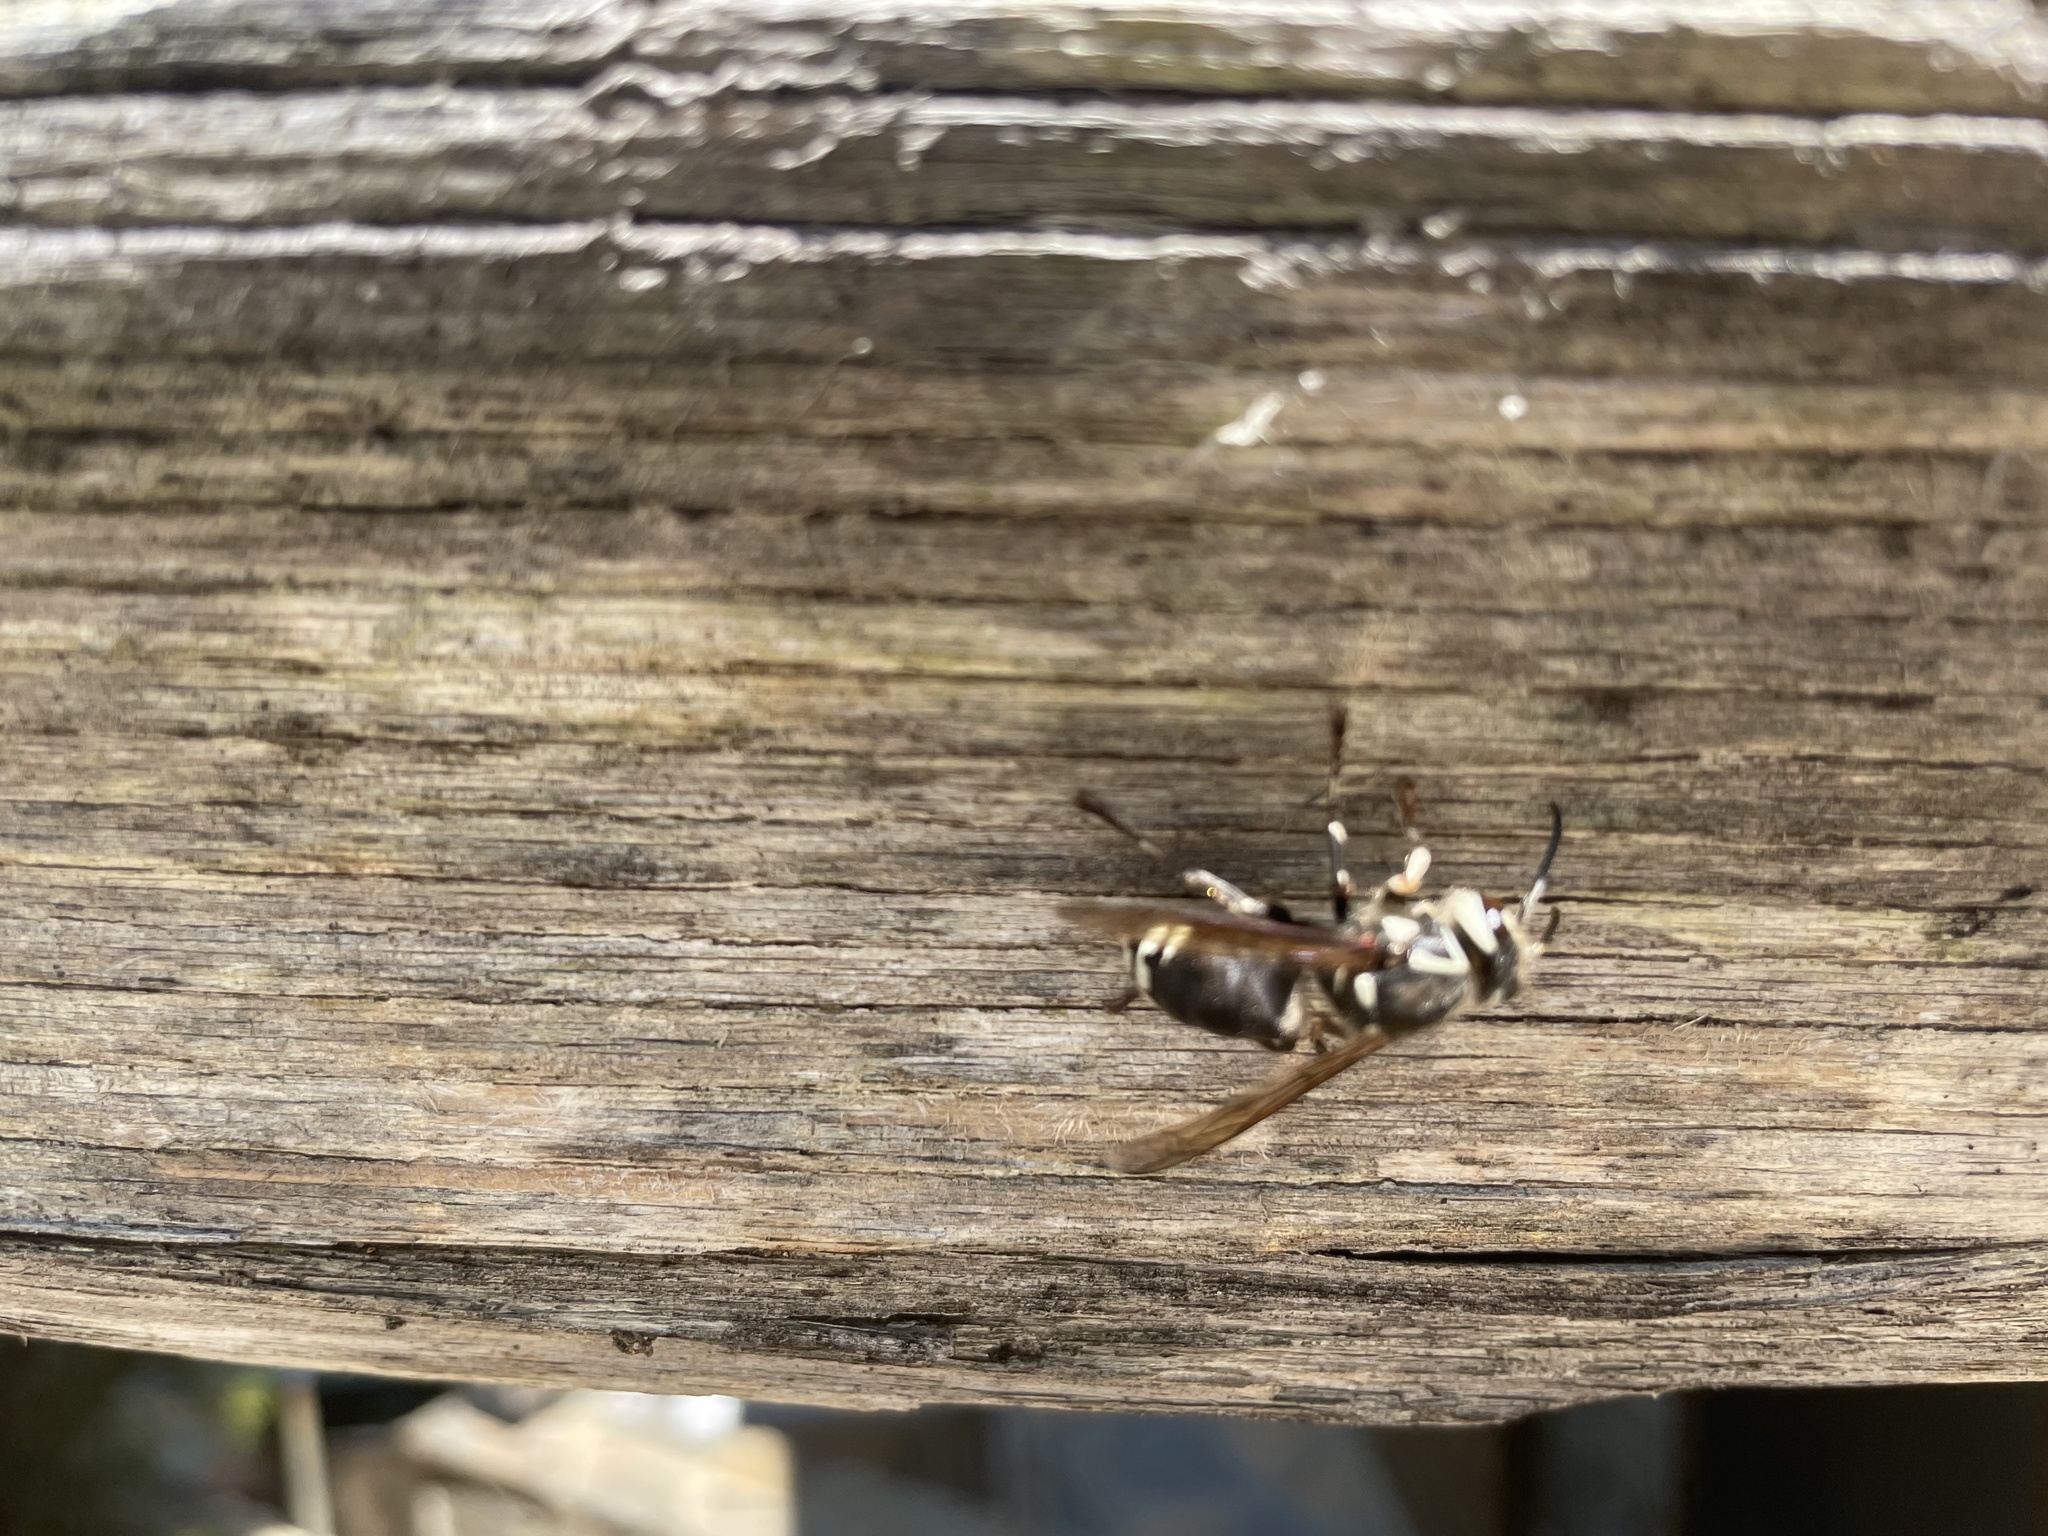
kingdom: Animalia
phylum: Arthropoda
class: Insecta
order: Hymenoptera
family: Vespidae
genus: Dolichovespula
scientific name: Dolichovespula maculata
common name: Bald-faced hornet
